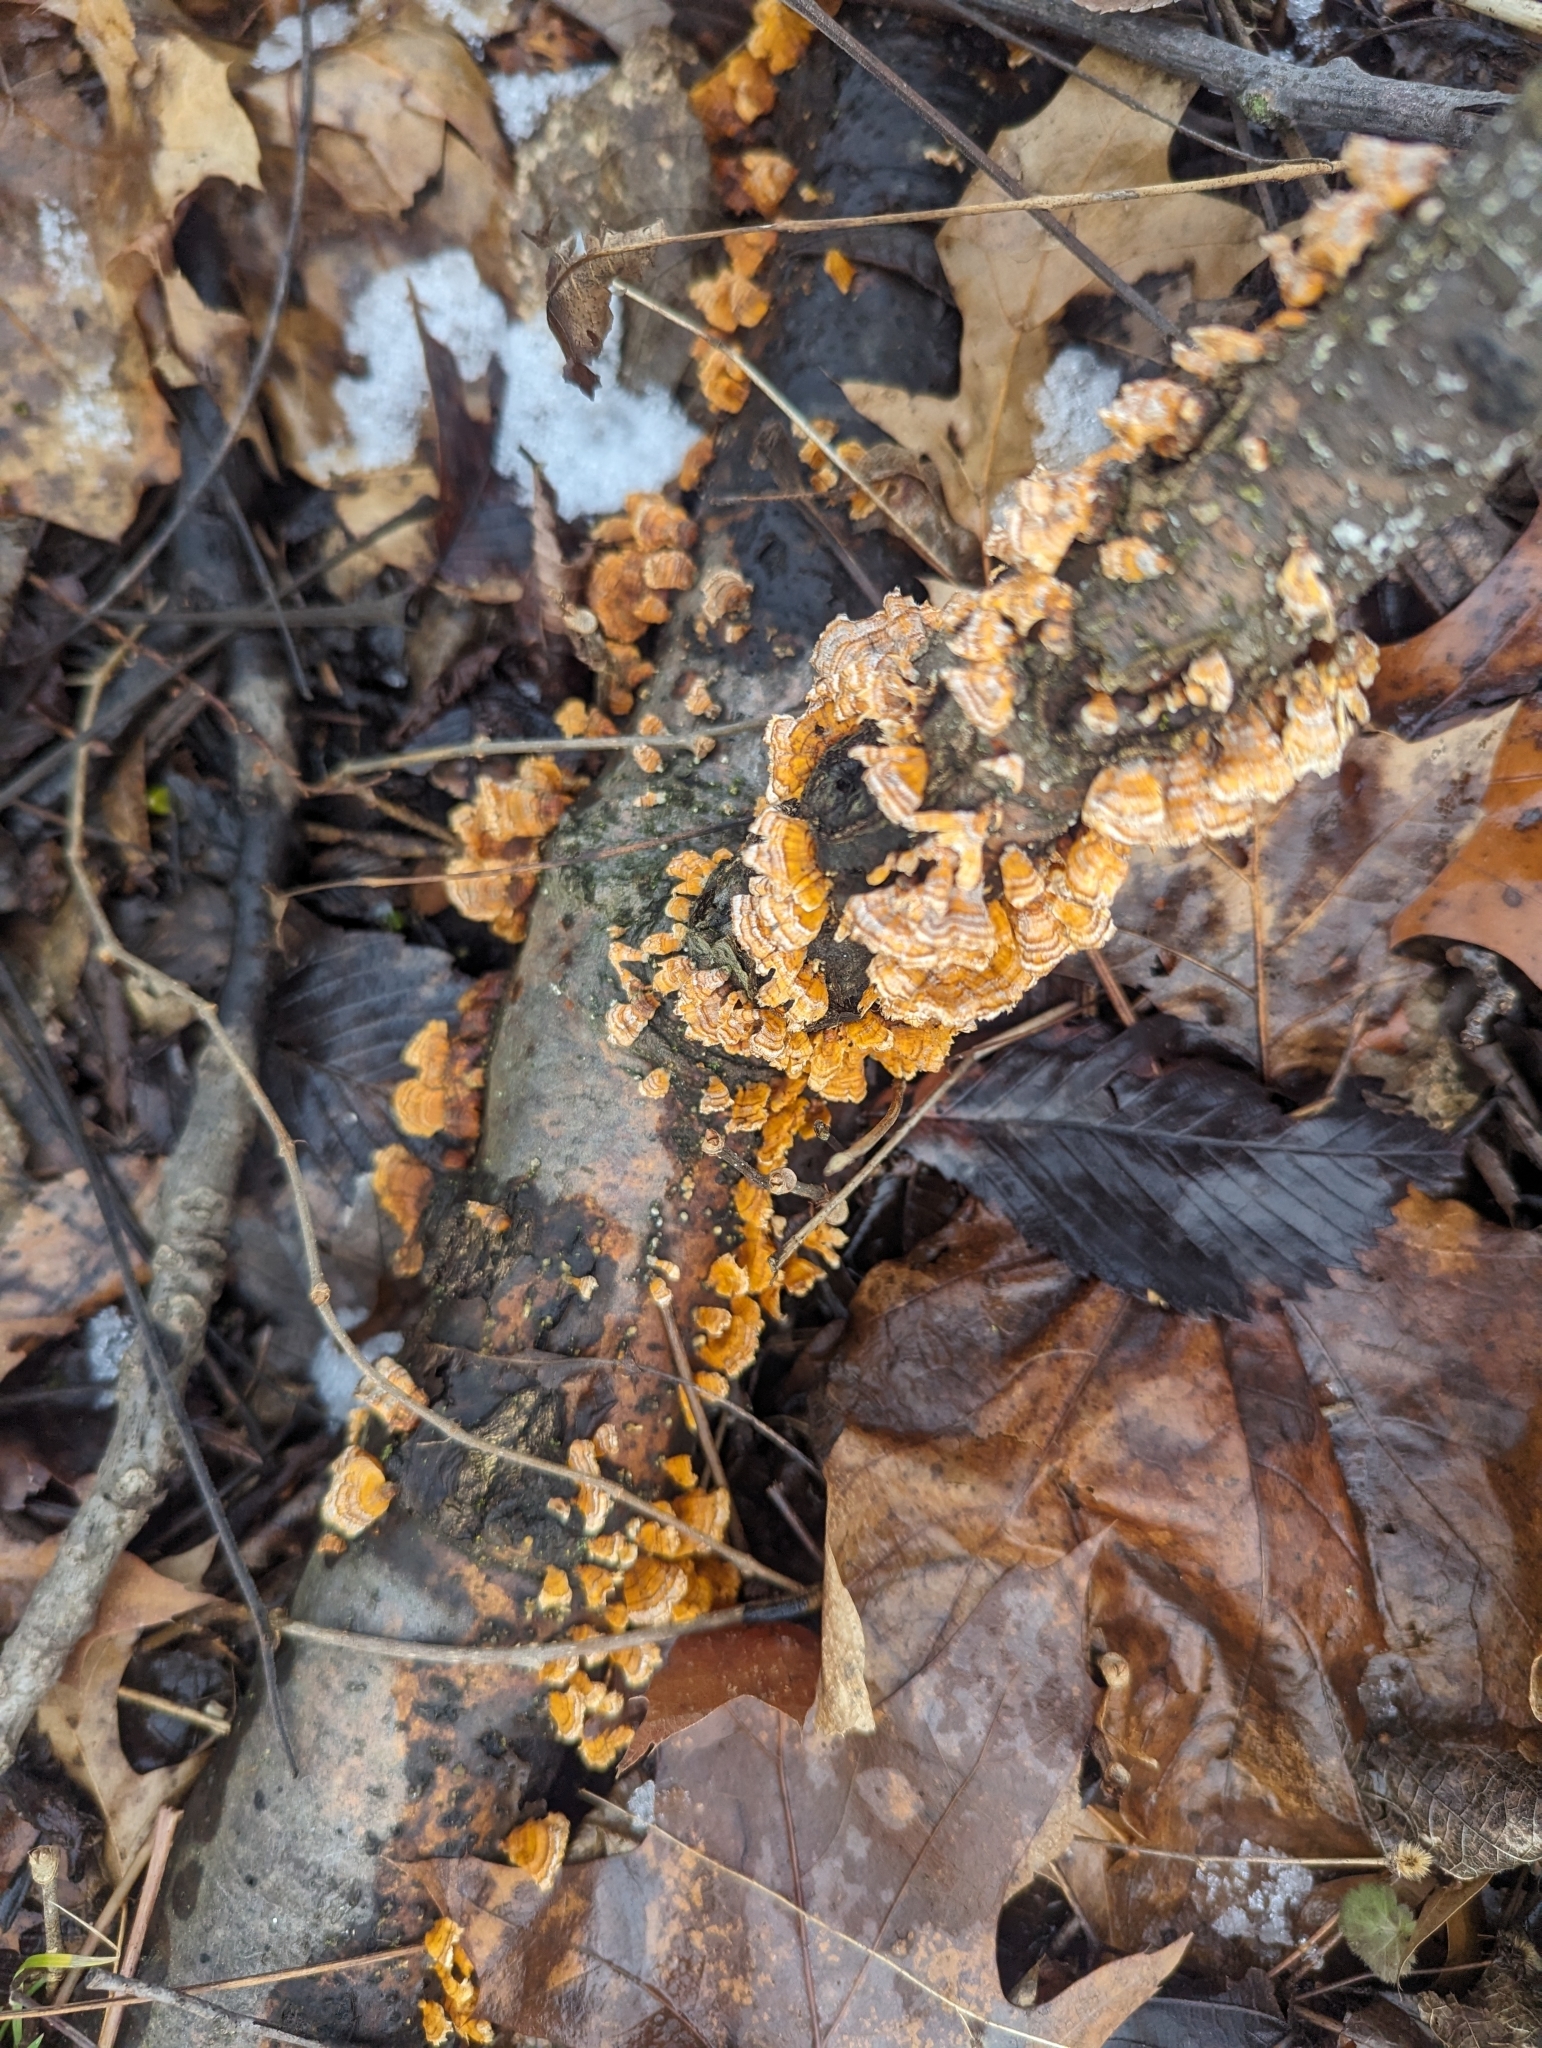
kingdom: Fungi
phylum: Basidiomycota
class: Agaricomycetes
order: Russulales
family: Stereaceae
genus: Stereum
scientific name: Stereum complicatum
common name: Crowded parchment
